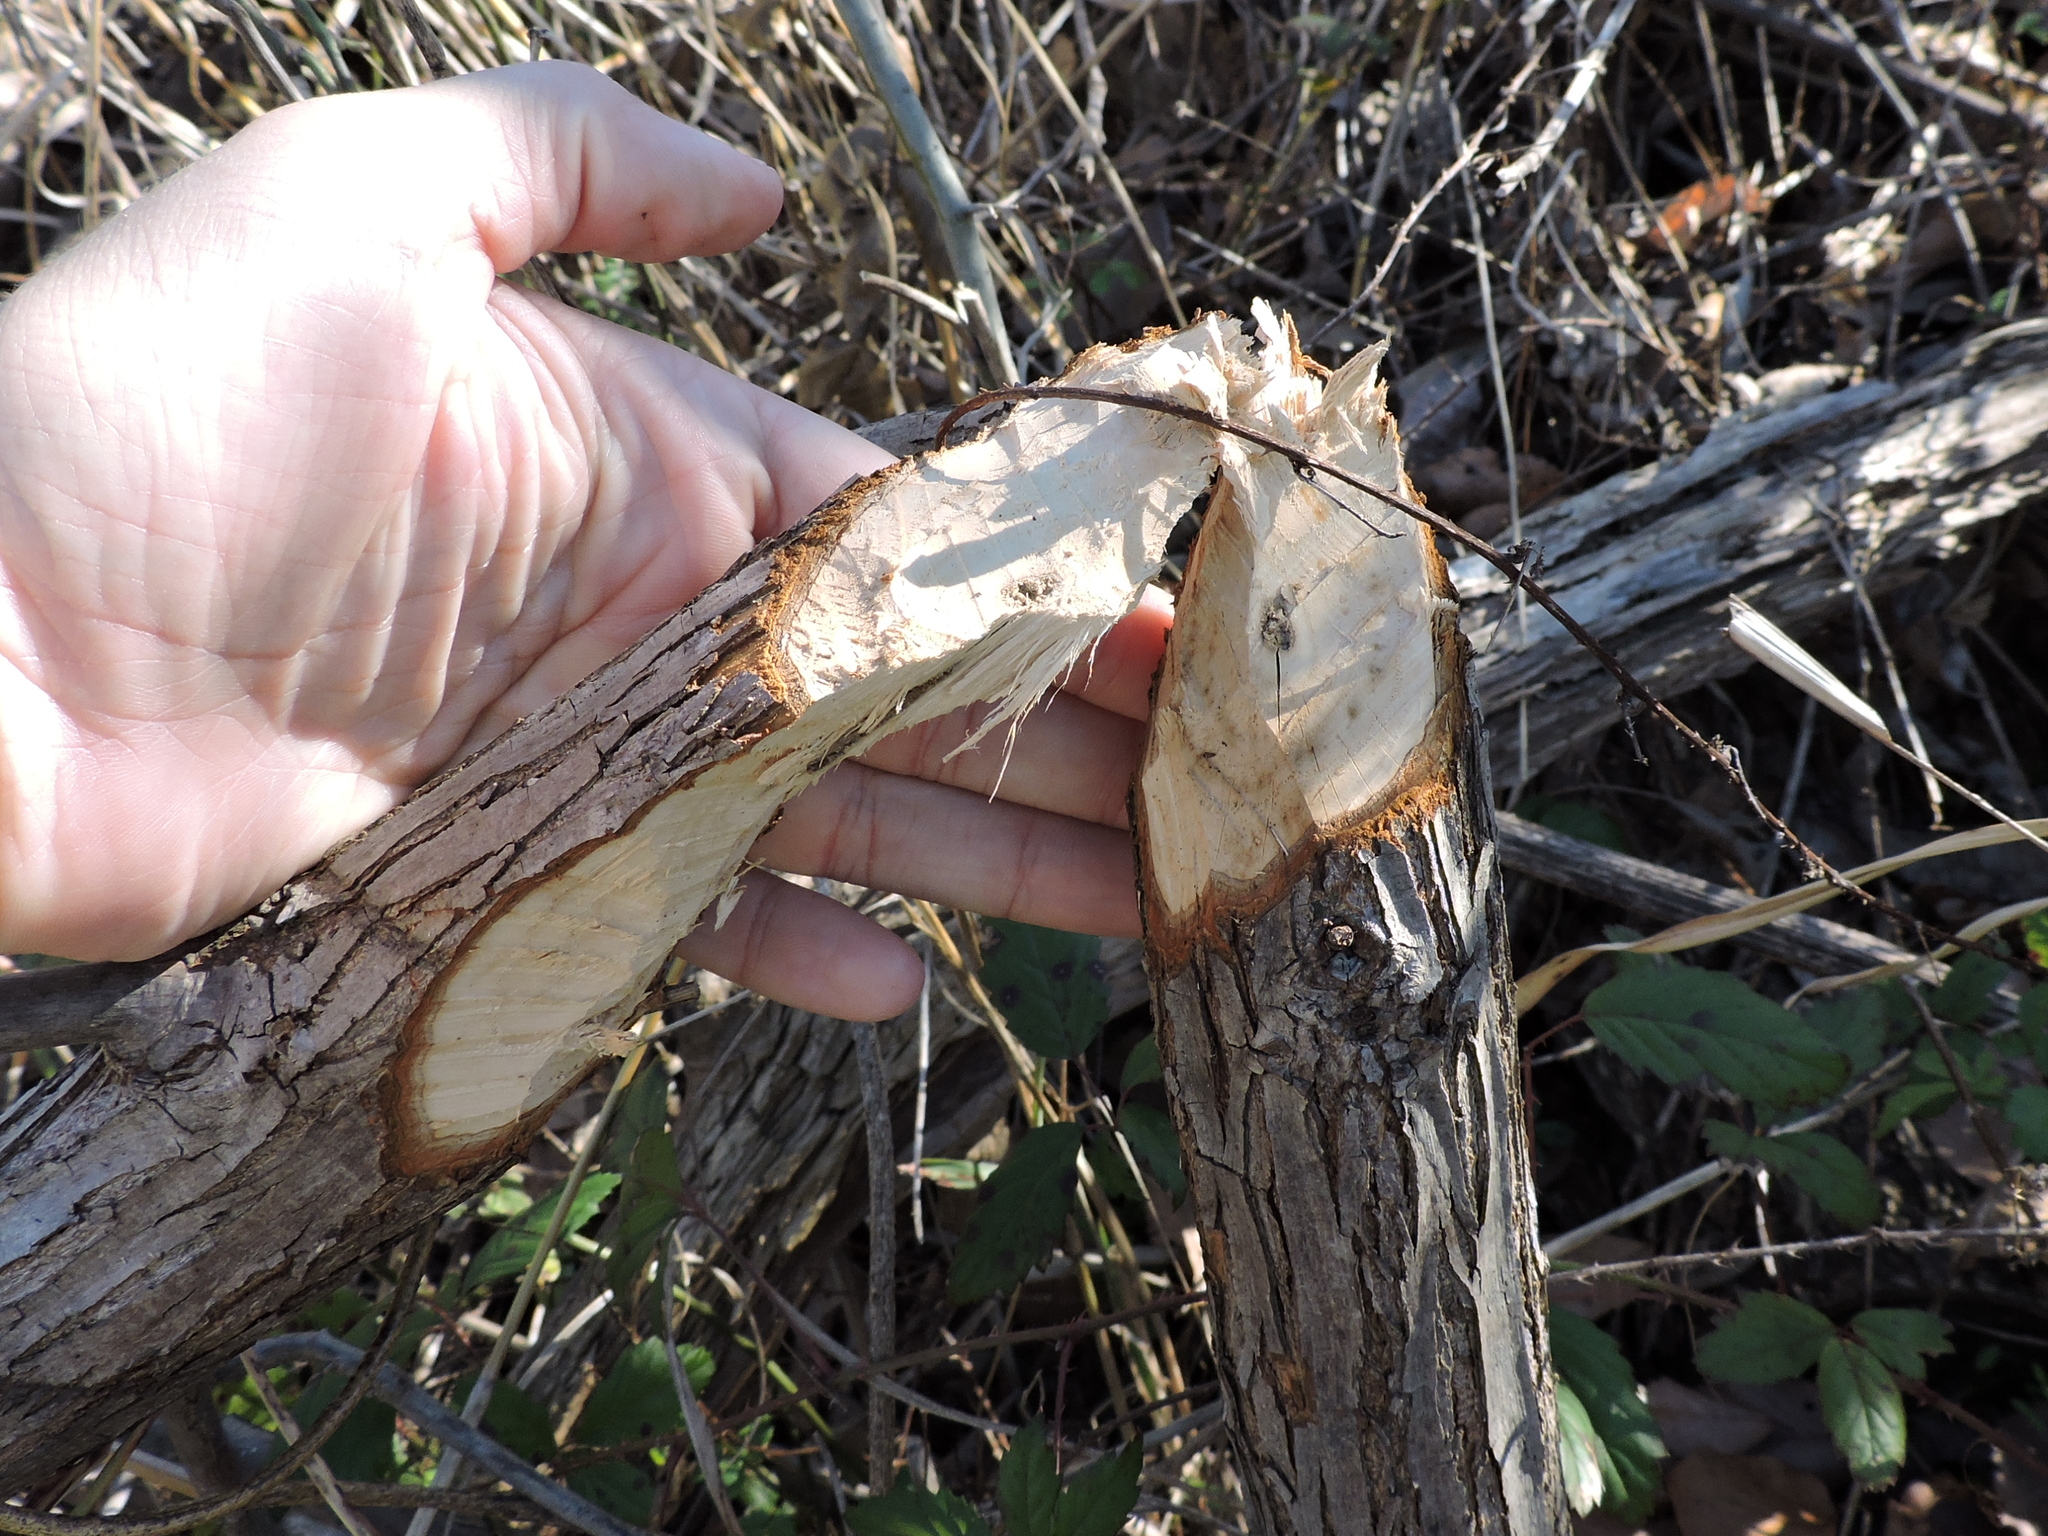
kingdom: Animalia
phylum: Chordata
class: Mammalia
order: Rodentia
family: Castoridae
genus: Castor
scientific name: Castor canadensis
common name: American beaver
